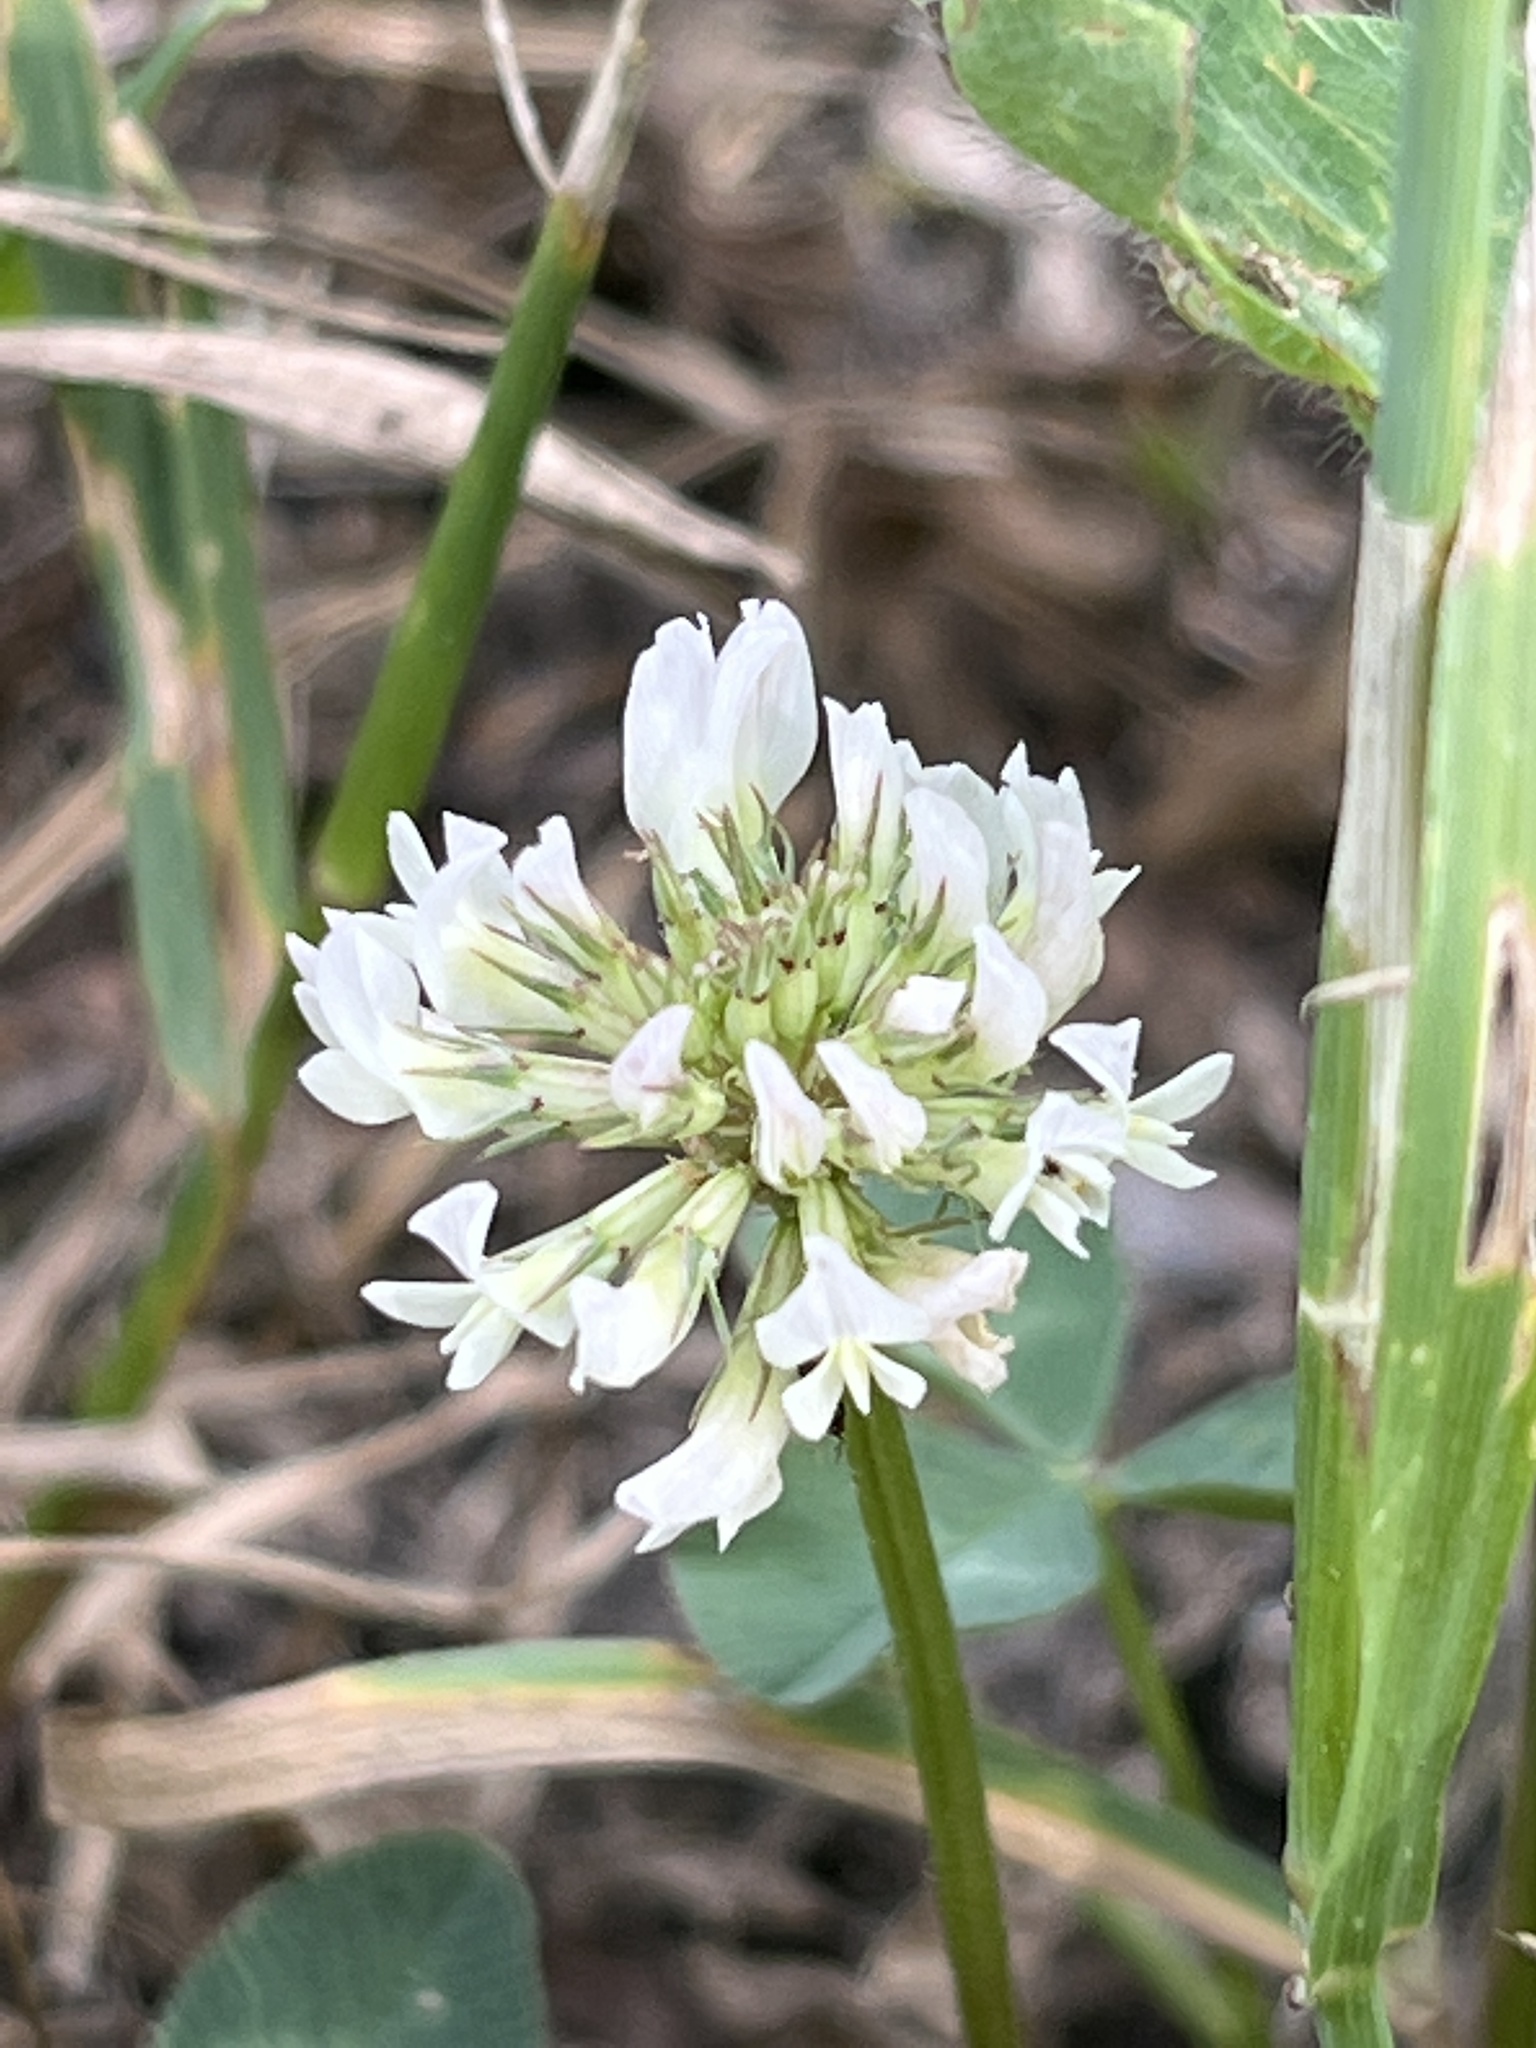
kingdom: Plantae
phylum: Tracheophyta
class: Magnoliopsida
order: Fabales
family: Fabaceae
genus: Trifolium
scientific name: Trifolium repens
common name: White clover
